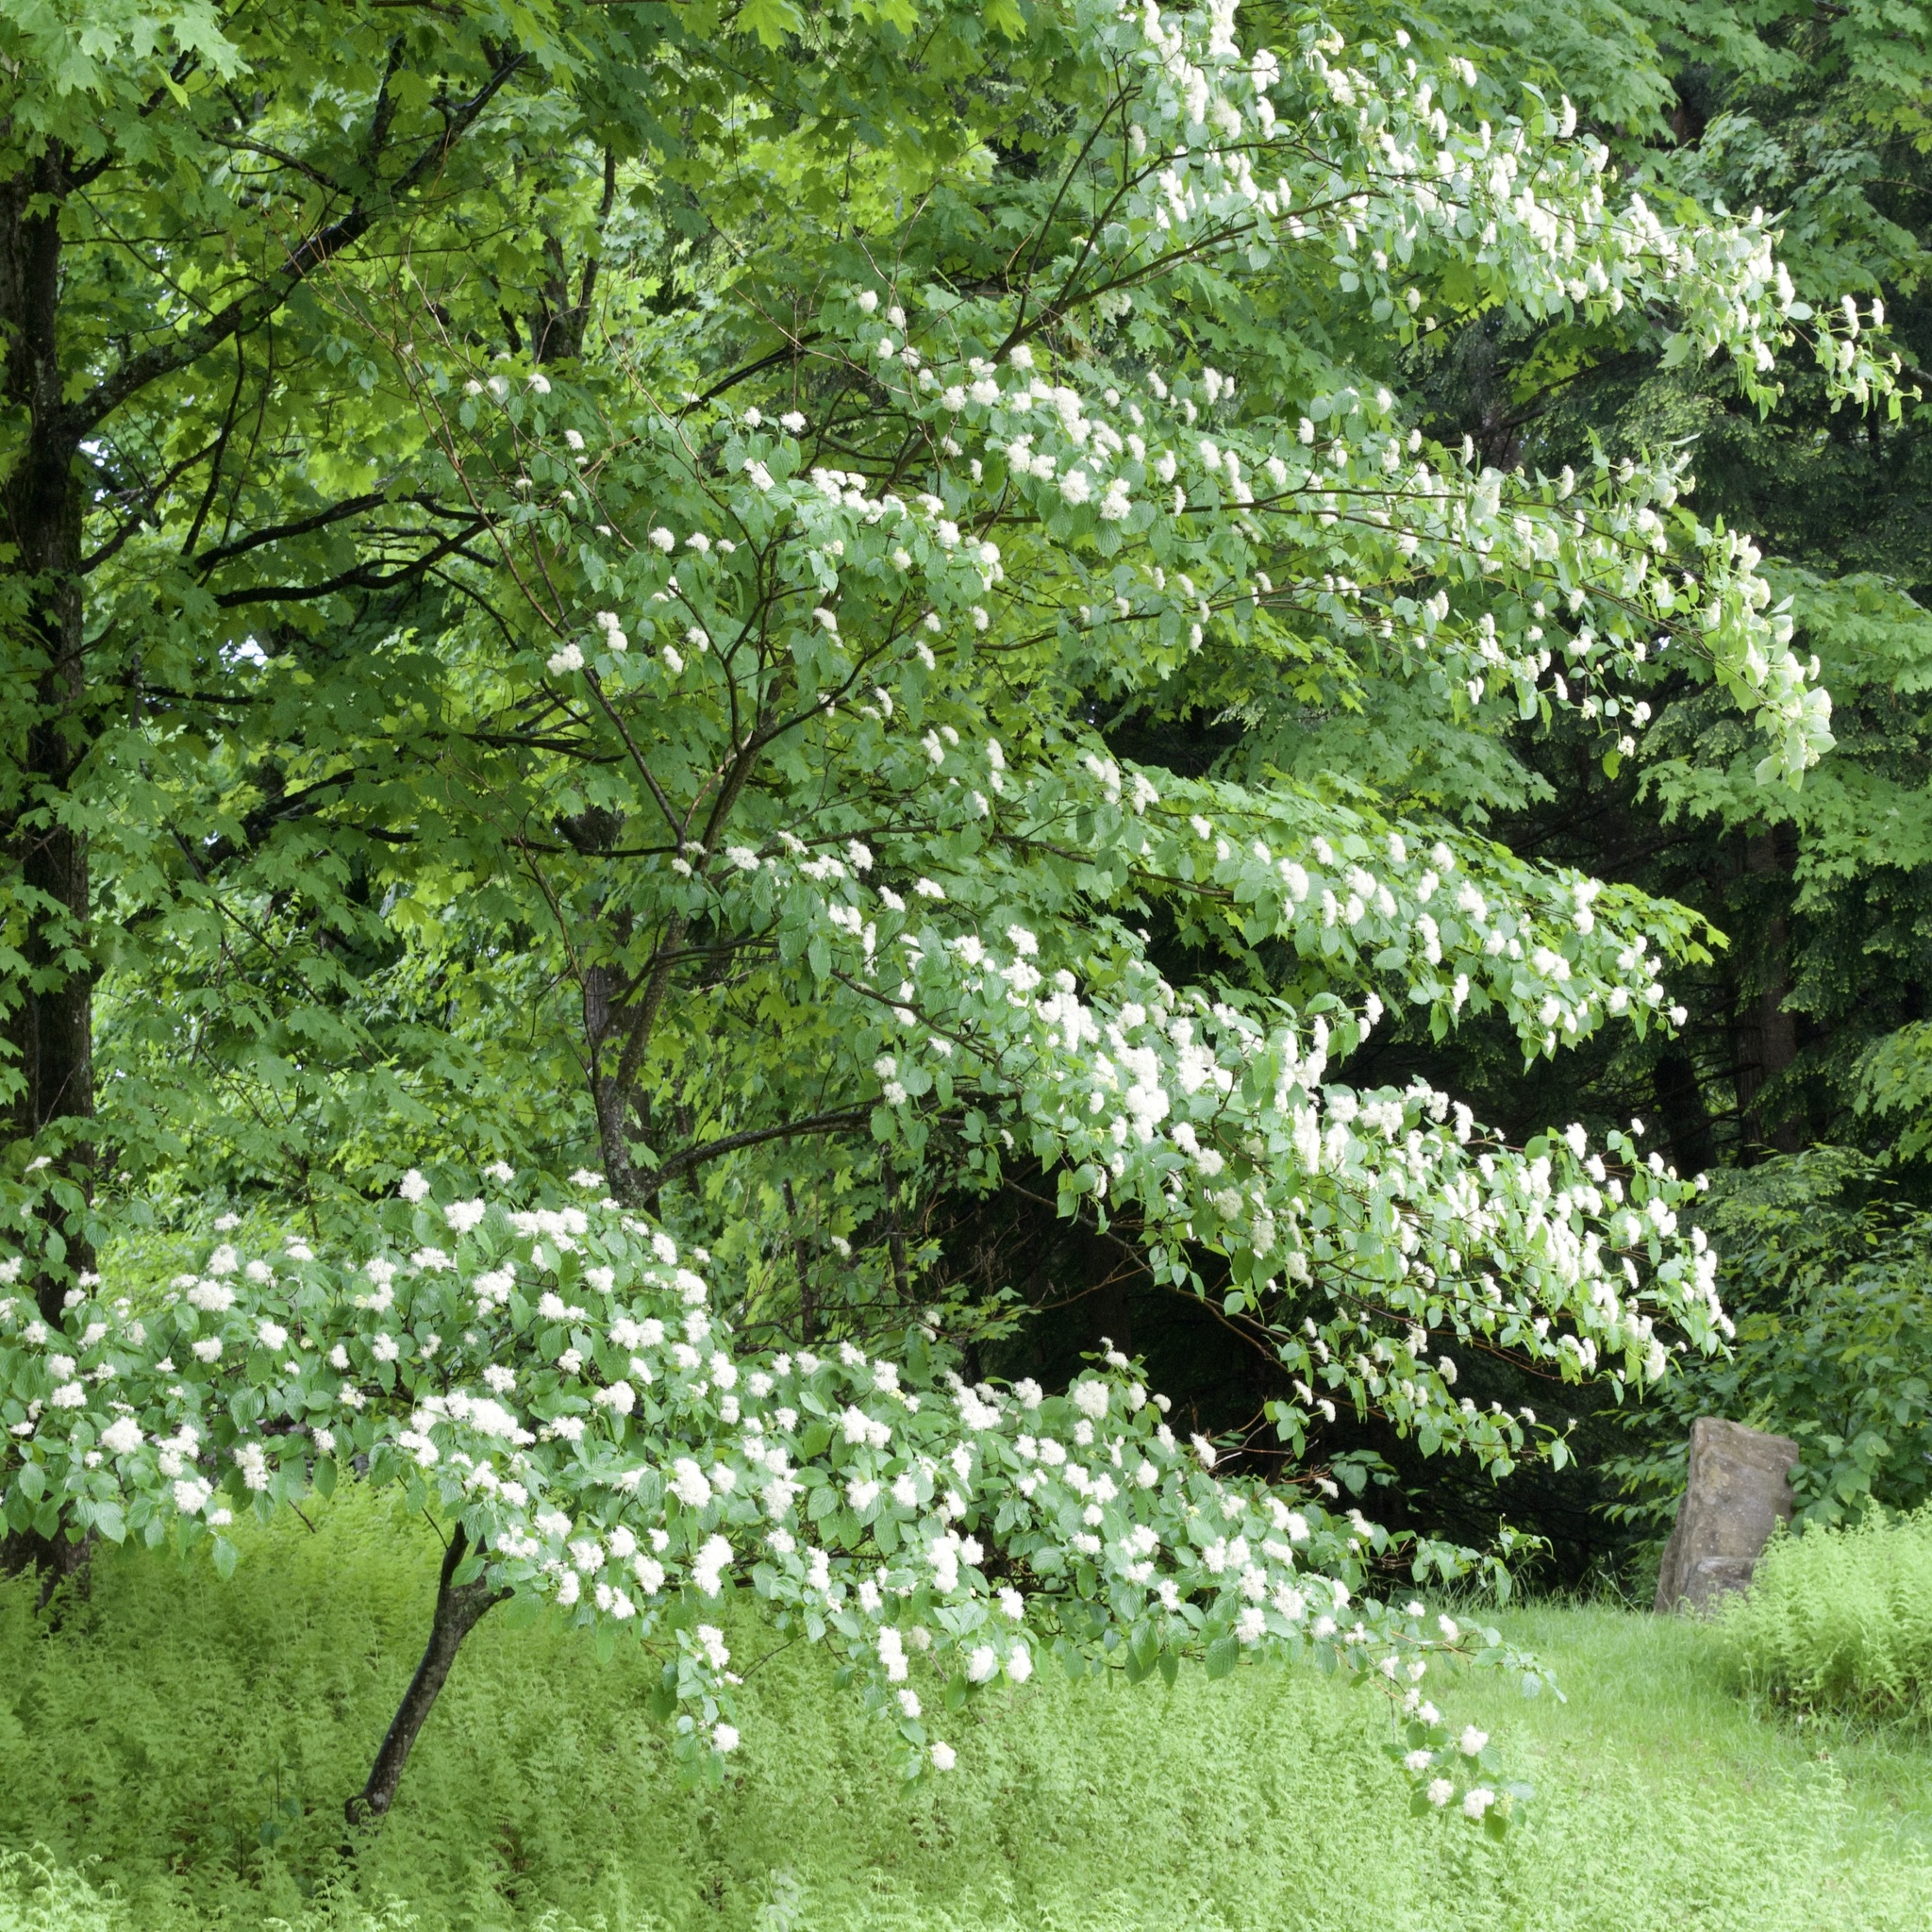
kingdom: Plantae
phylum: Tracheophyta
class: Magnoliopsida
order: Cornales
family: Cornaceae
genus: Cornus
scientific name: Cornus alternifolia
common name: Pagoda dogwood
